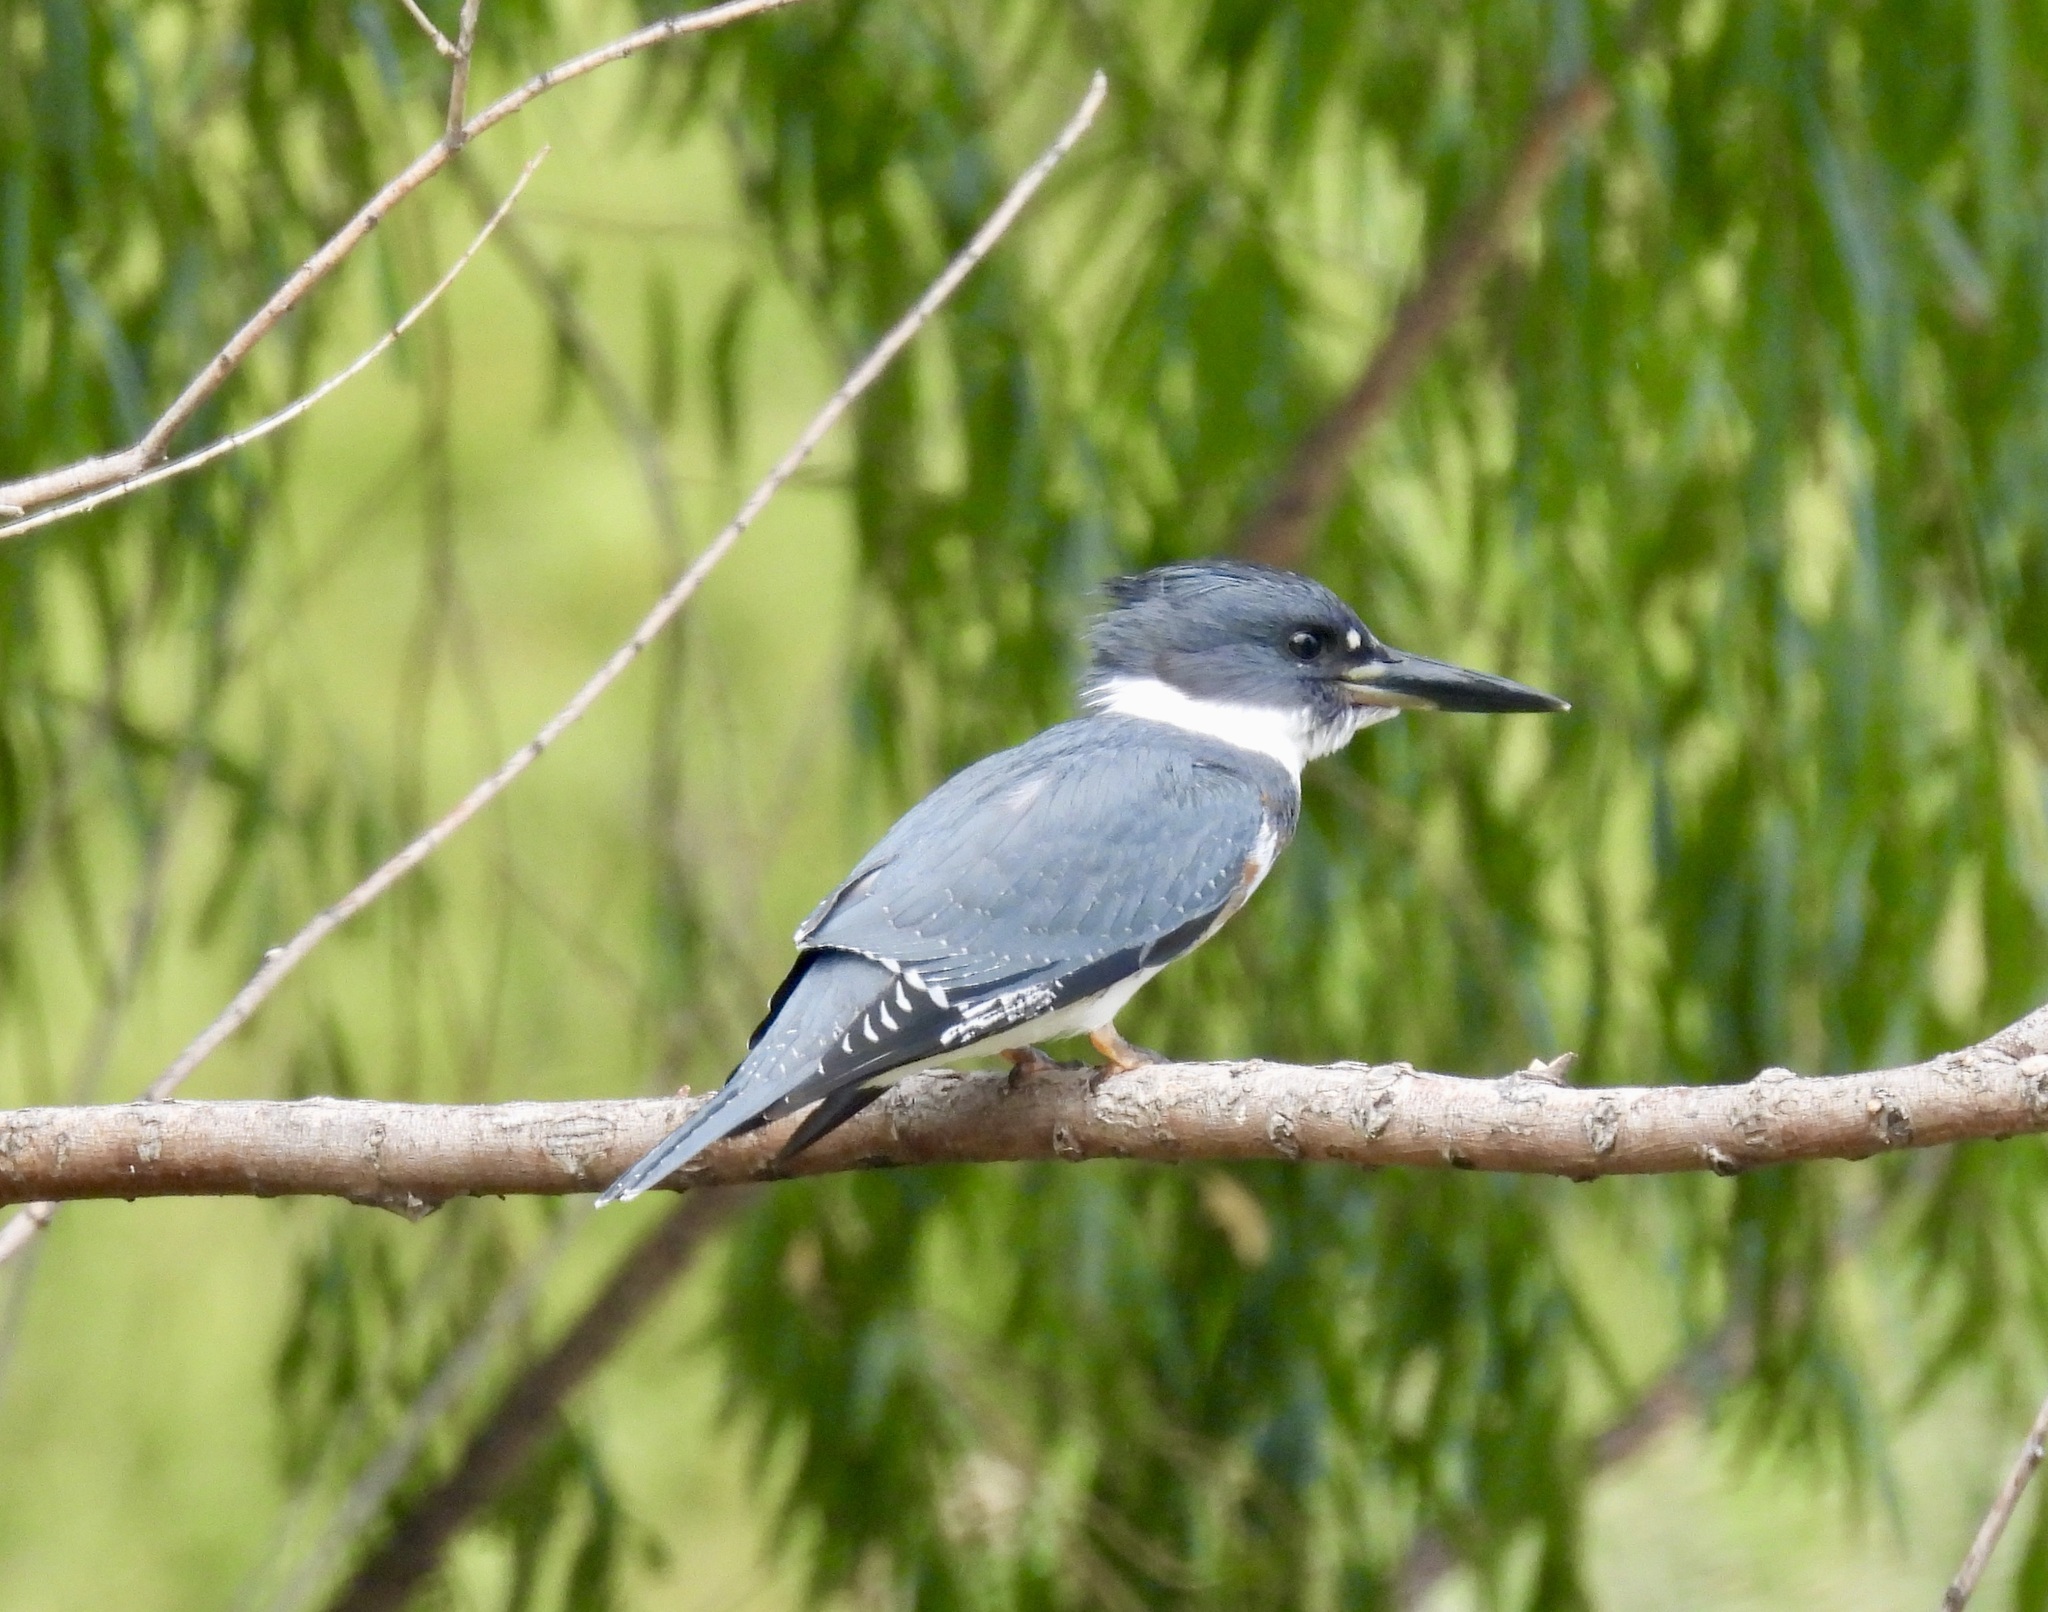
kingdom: Animalia
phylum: Chordata
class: Aves
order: Coraciiformes
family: Alcedinidae
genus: Megaceryle
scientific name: Megaceryle alcyon
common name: Belted kingfisher
